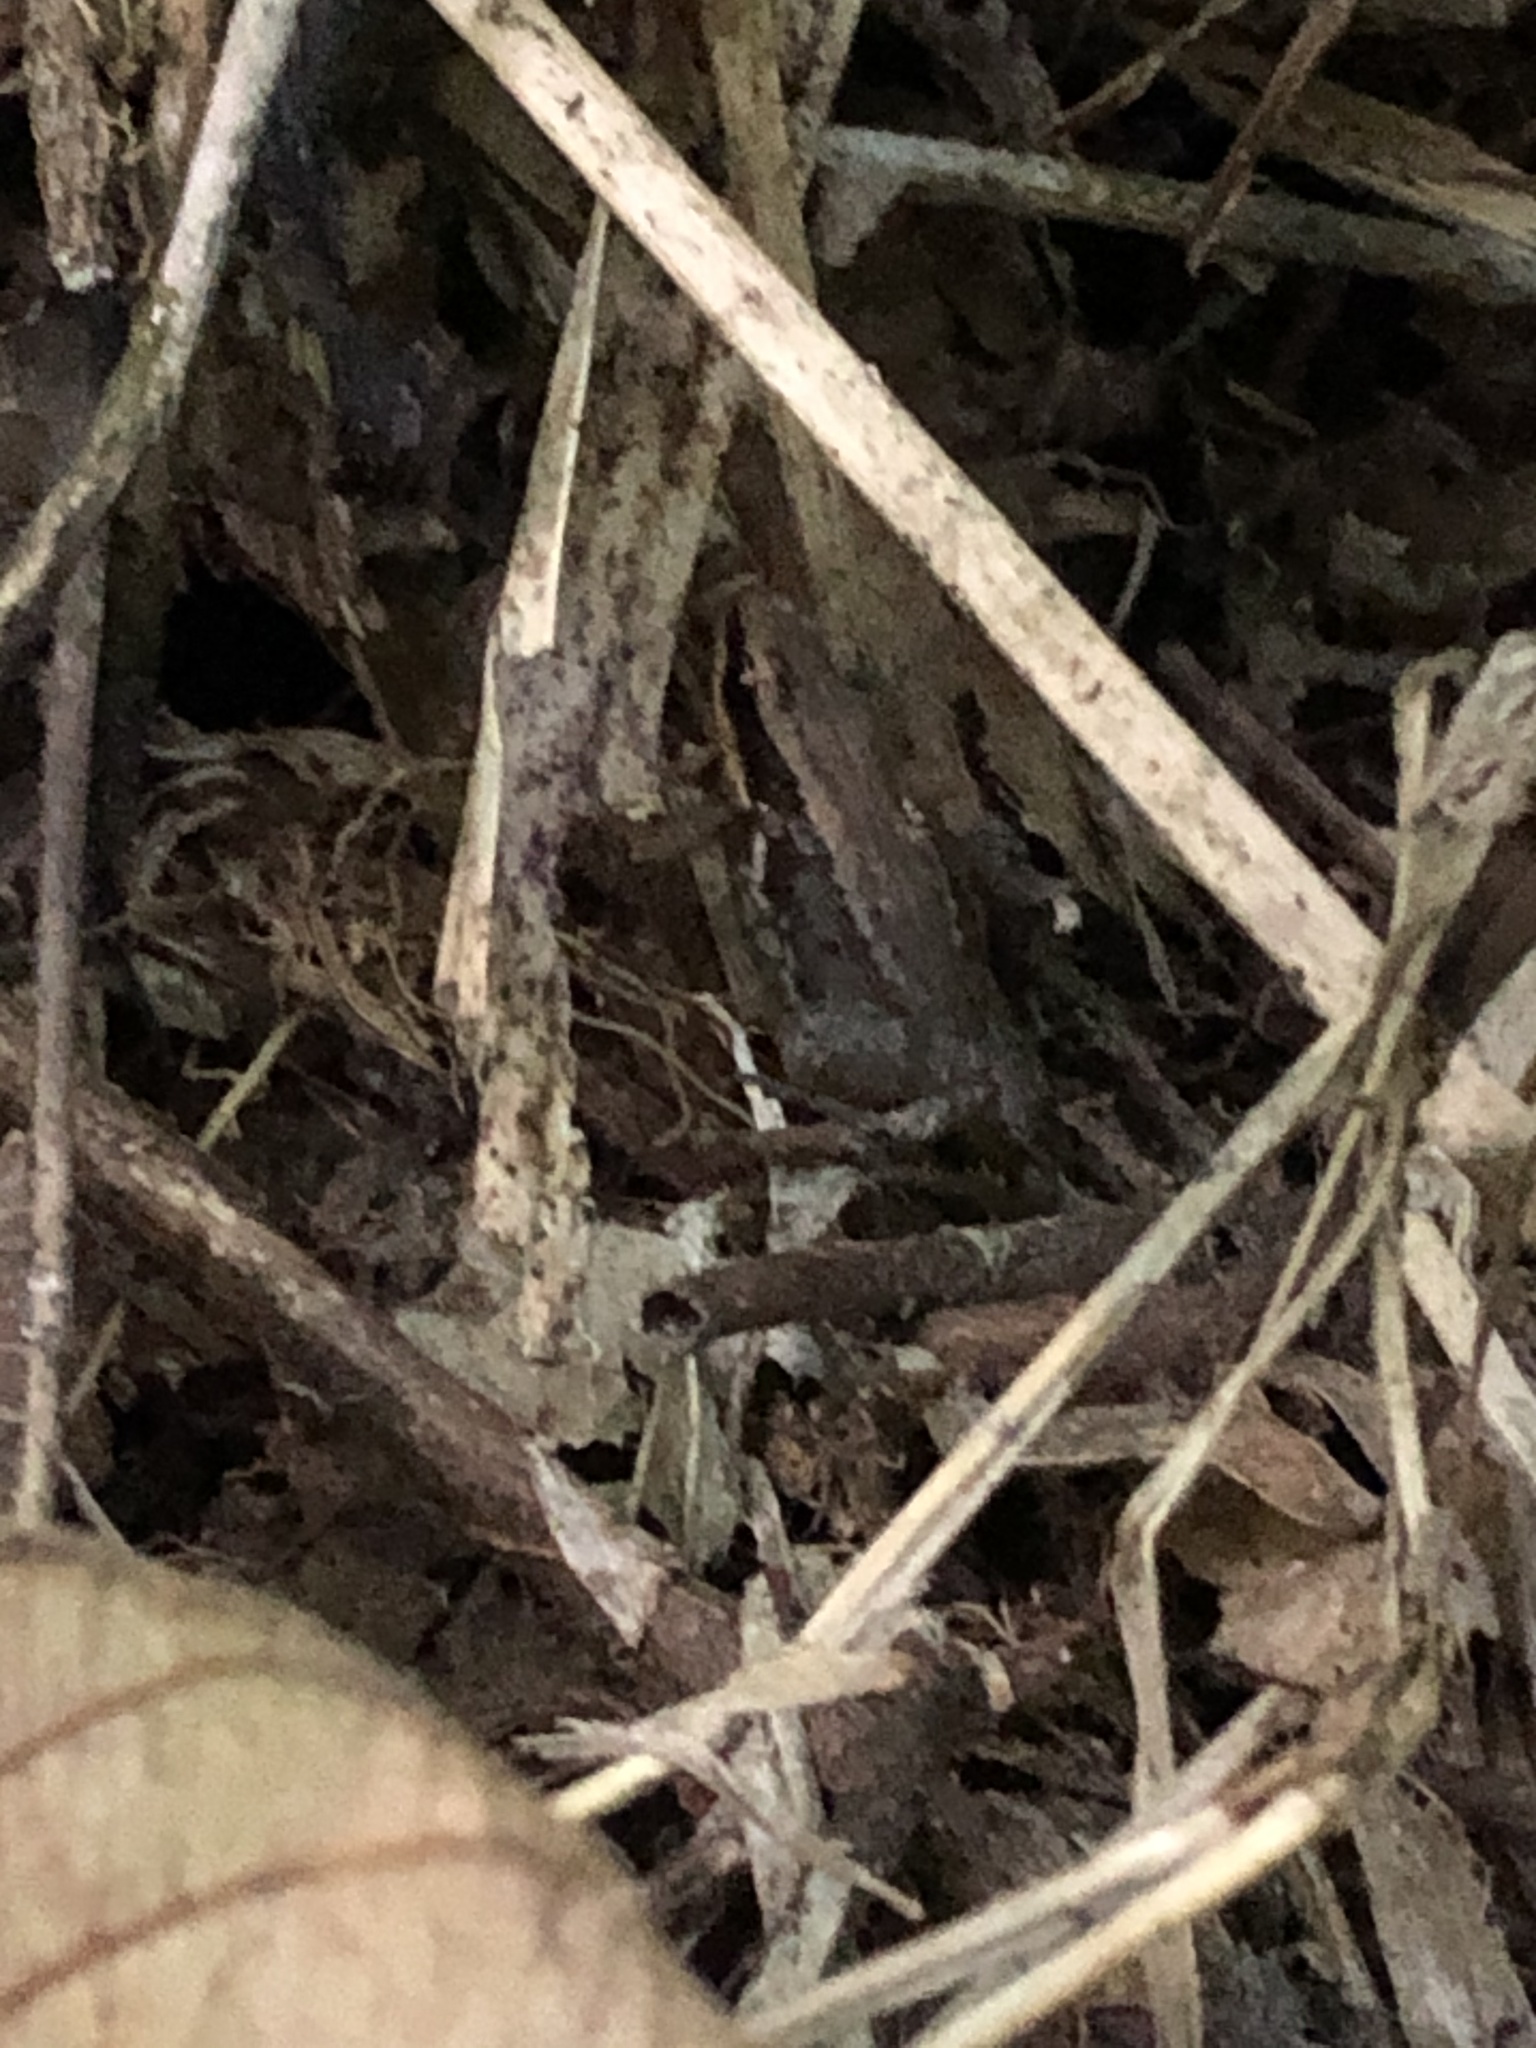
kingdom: Animalia
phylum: Chordata
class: Amphibia
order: Anura
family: Aromobatidae
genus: Allobates
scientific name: Allobates trilineatus
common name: Three-striped rocket frog
